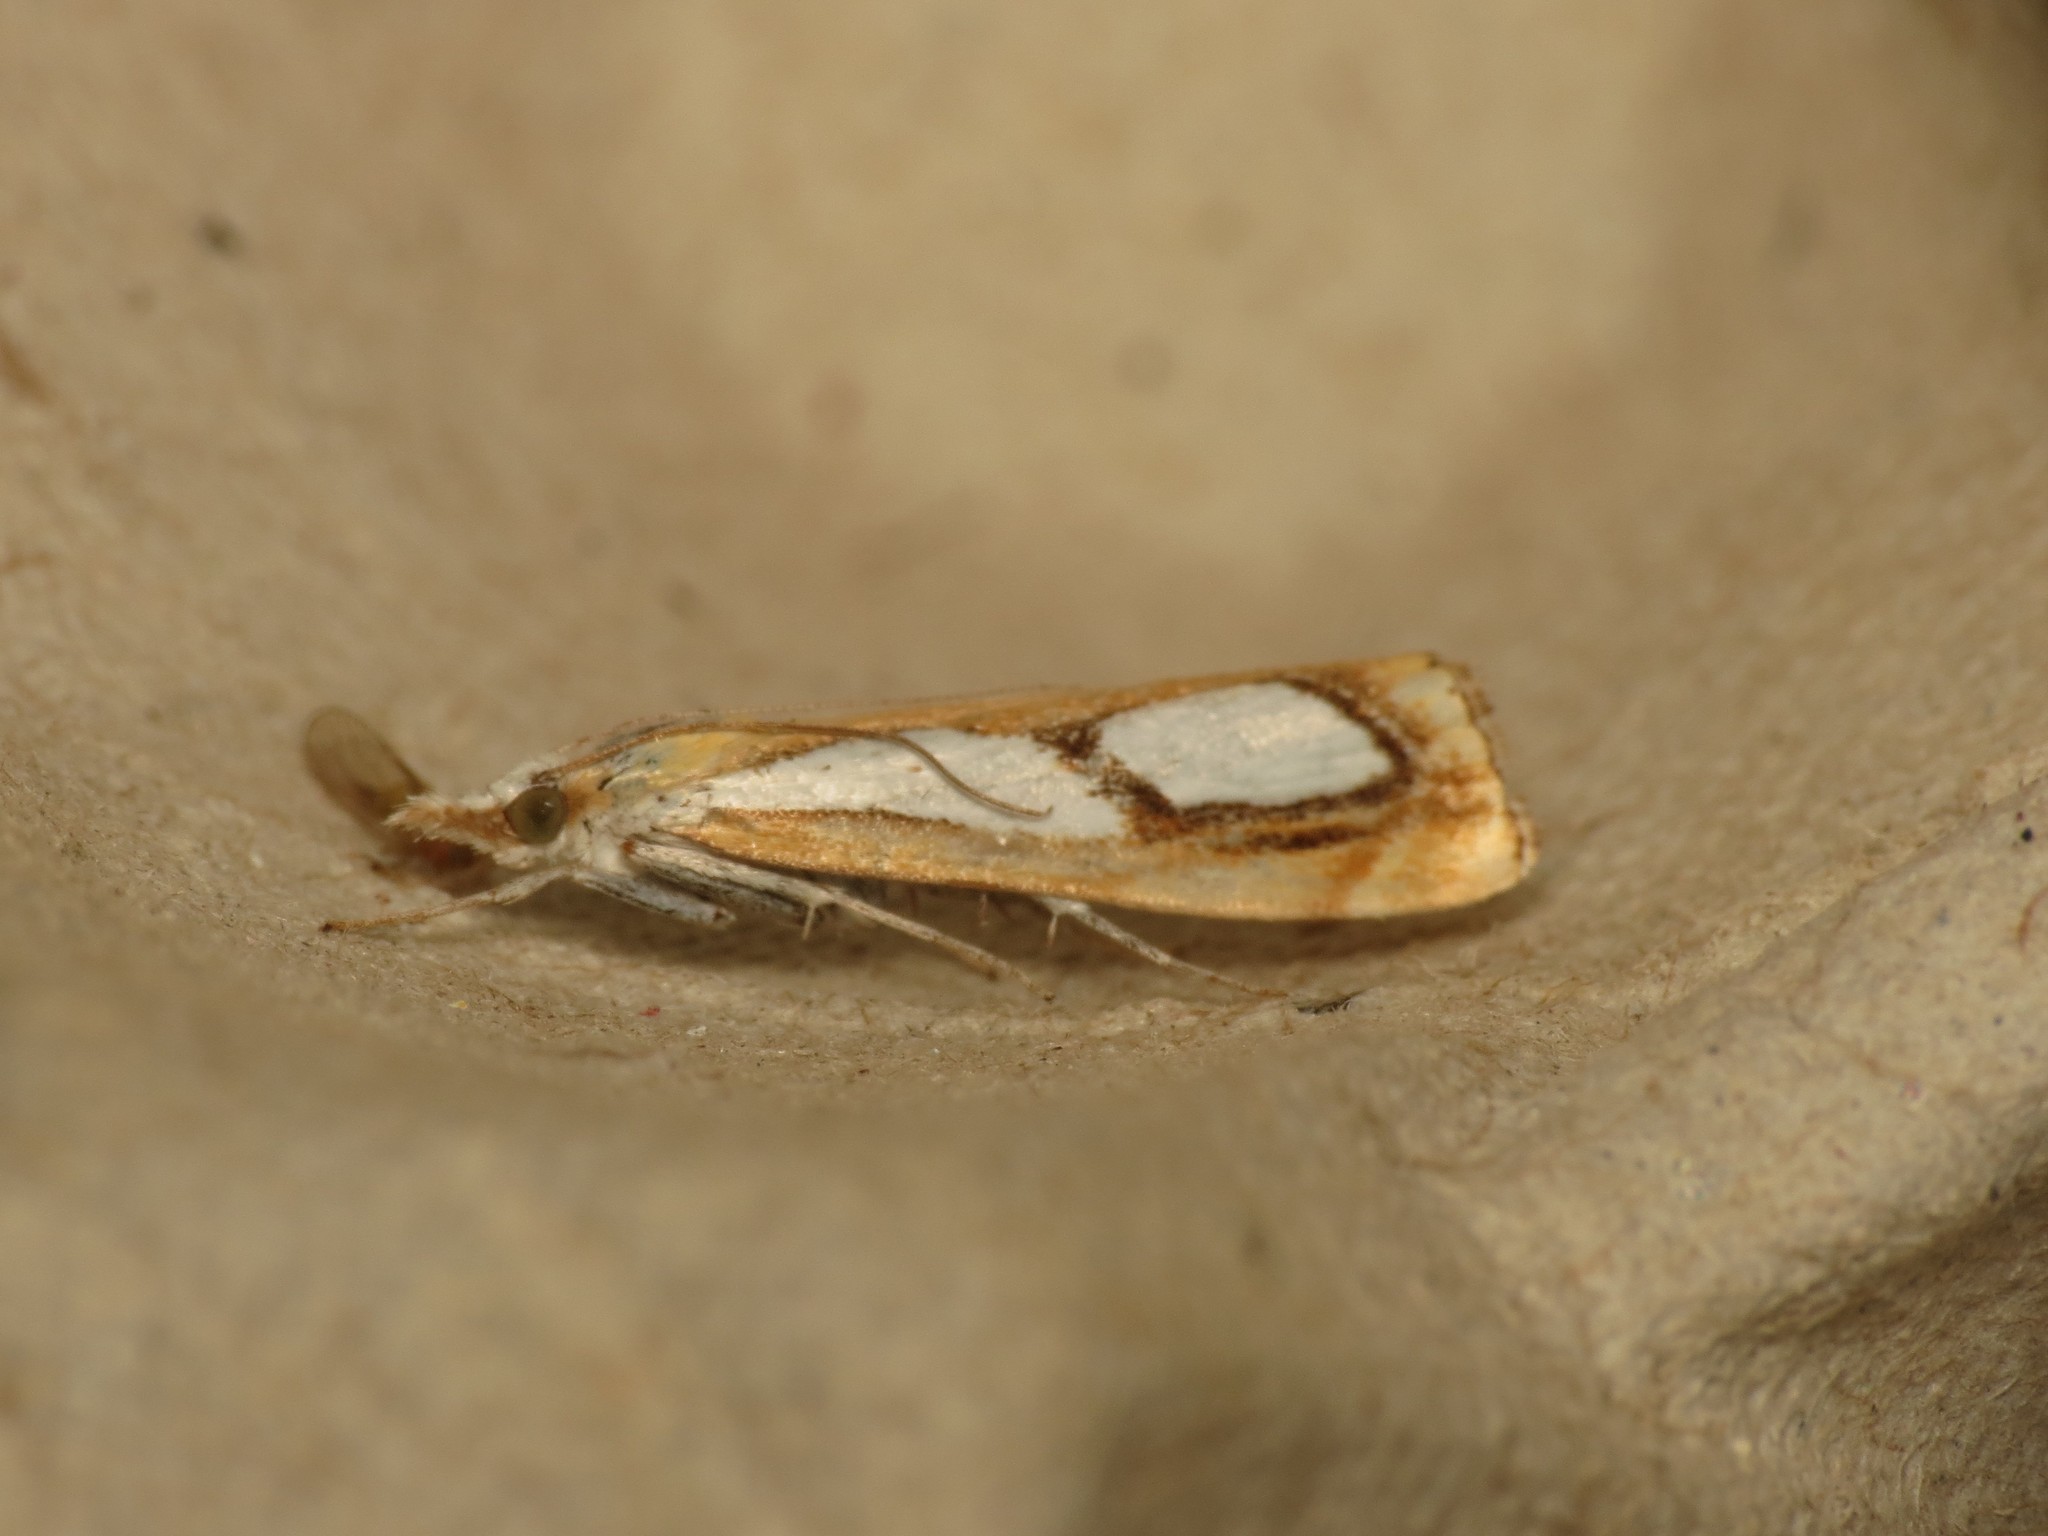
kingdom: Animalia
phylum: Arthropoda
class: Insecta
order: Lepidoptera
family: Crambidae
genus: Catoptria
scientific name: Catoptria pinella
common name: Pearl grass-veneer
